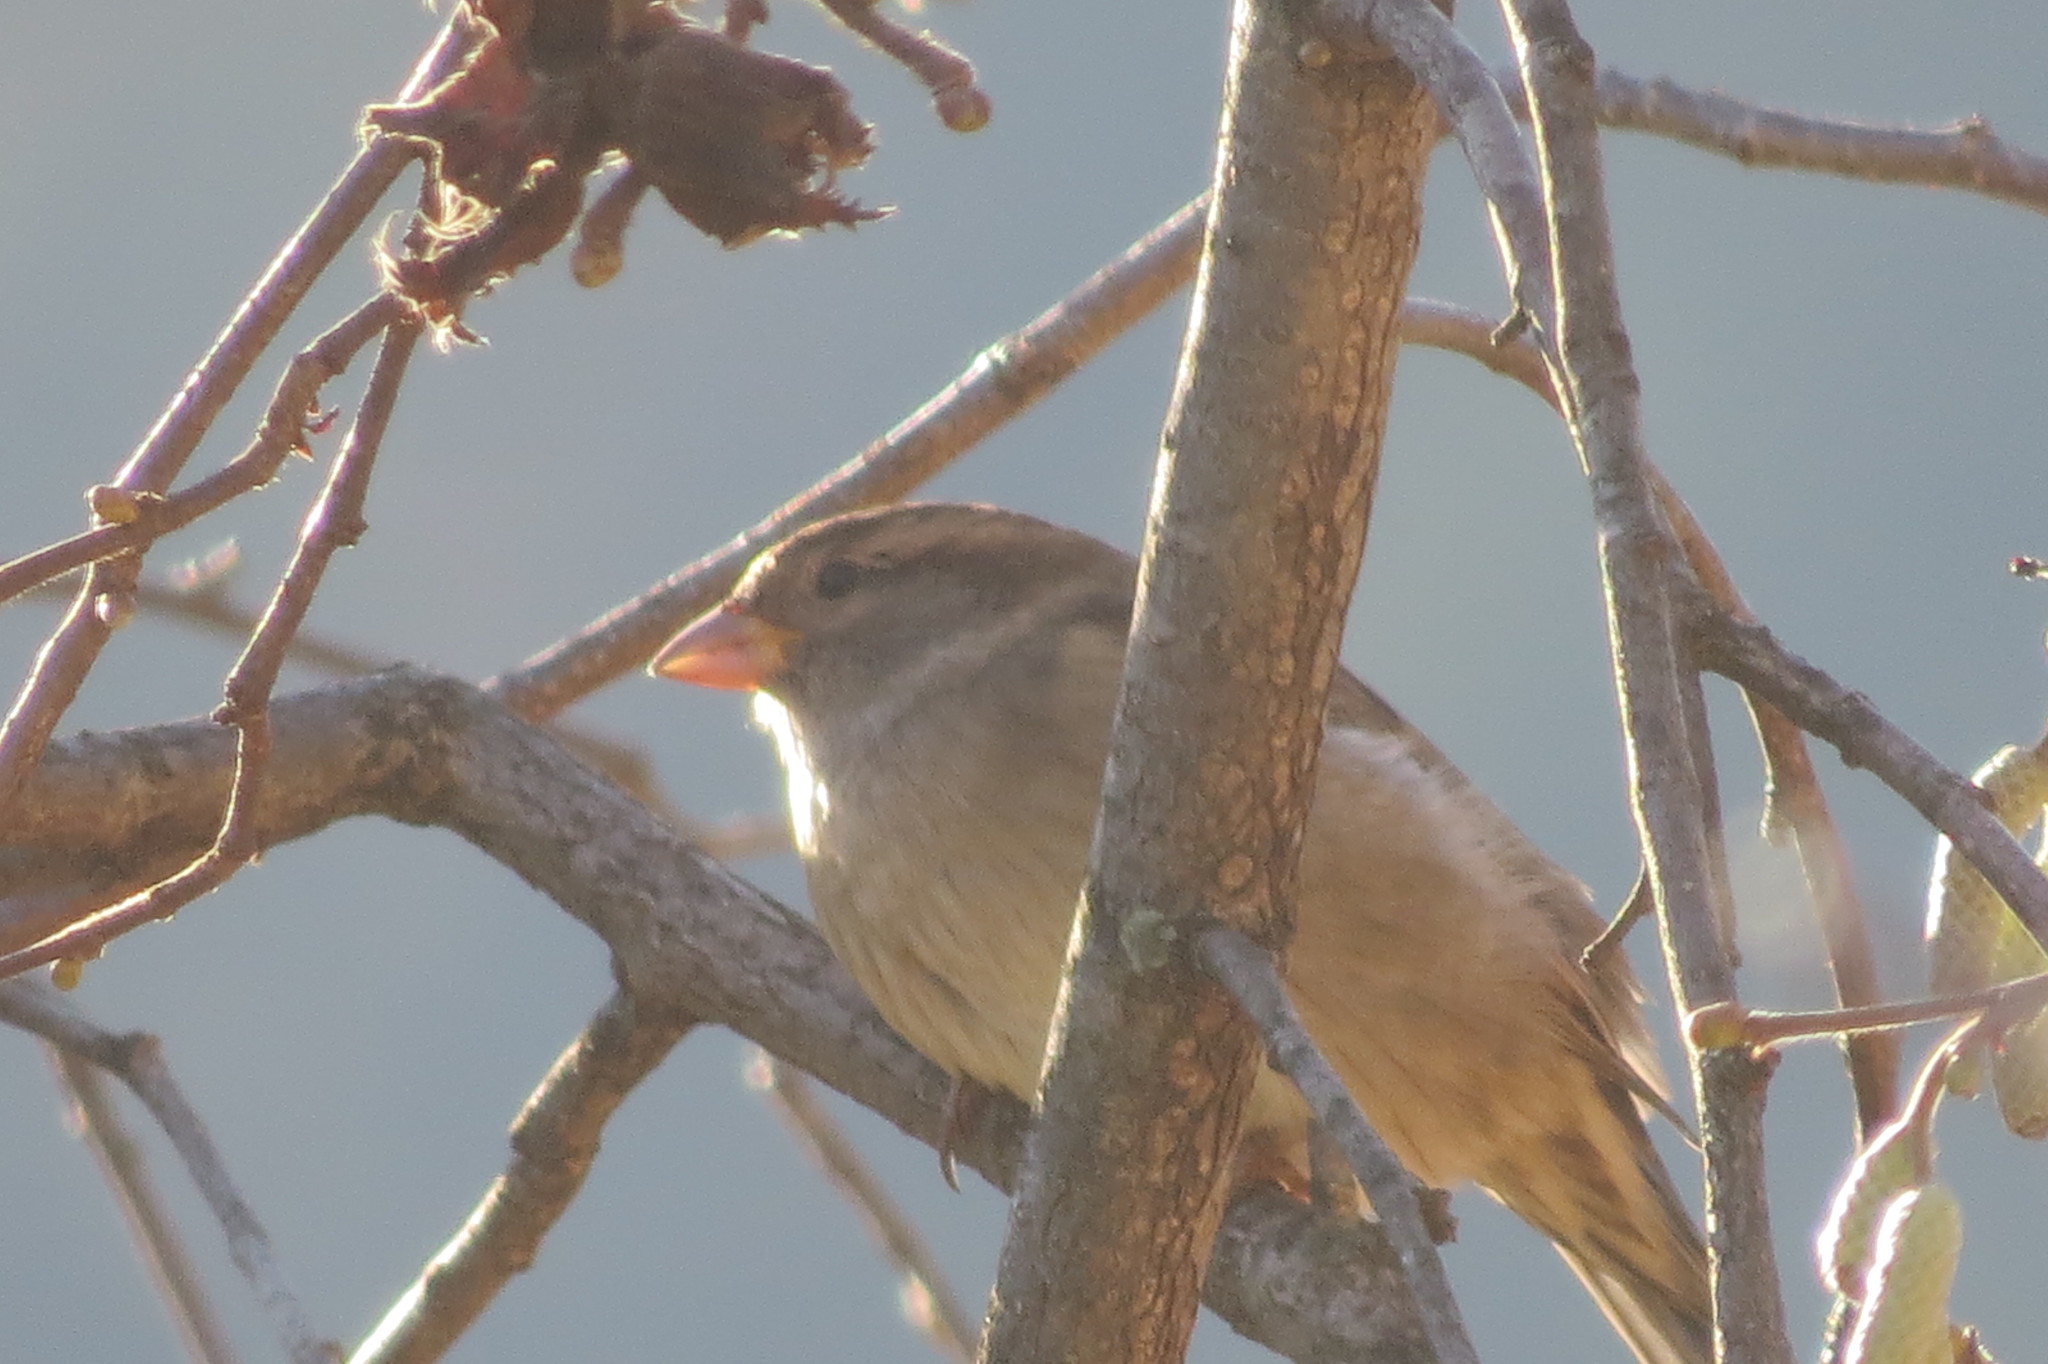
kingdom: Animalia
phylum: Chordata
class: Aves
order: Passeriformes
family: Passeridae
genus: Passer
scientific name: Passer
